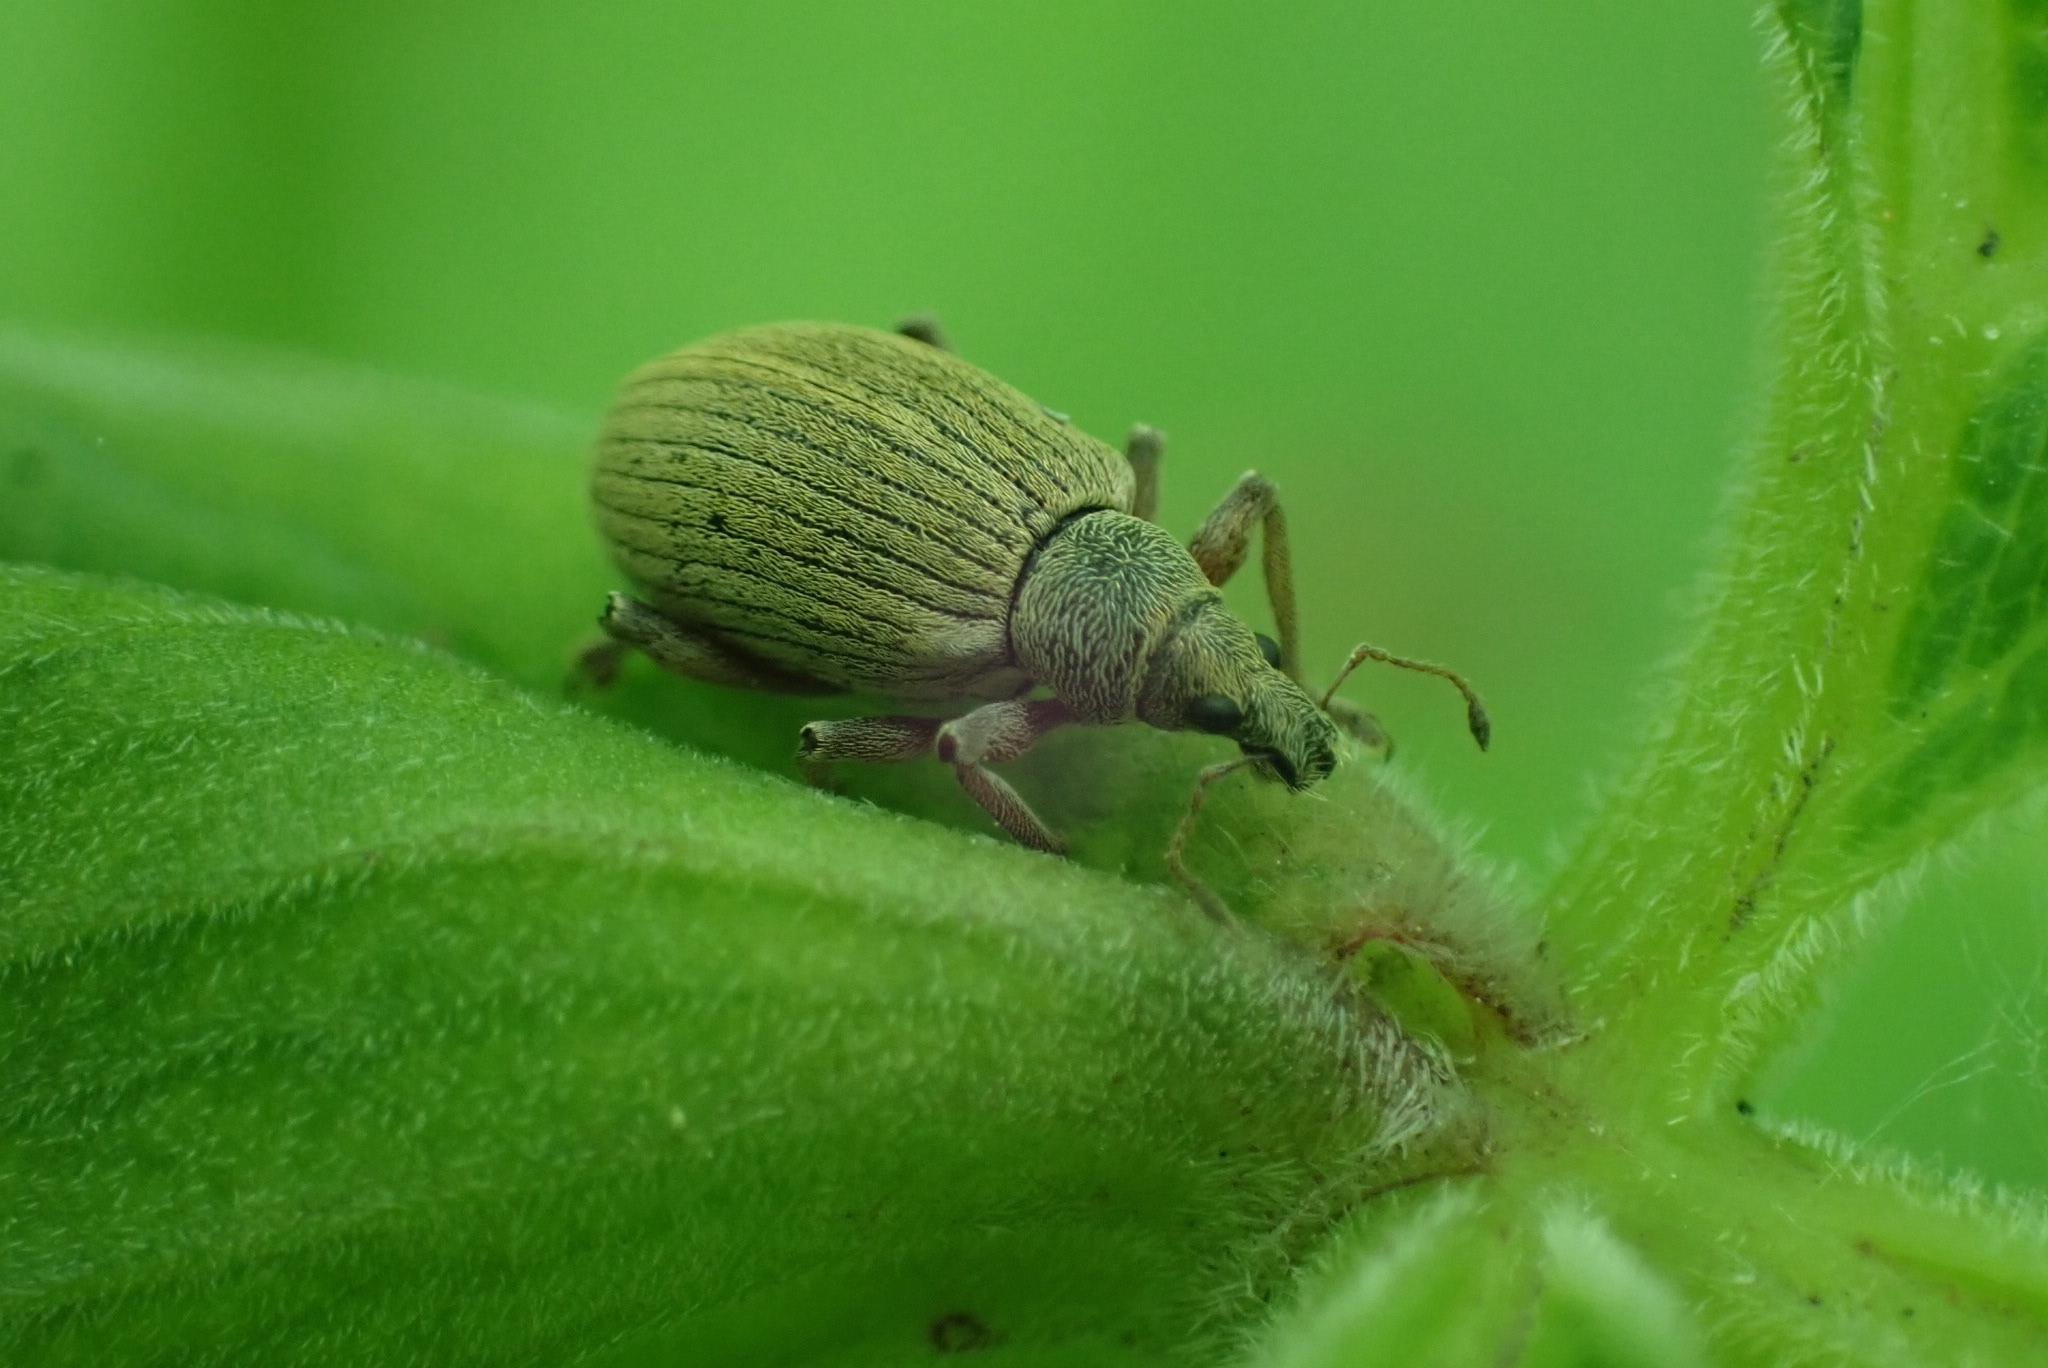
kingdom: Animalia
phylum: Arthropoda
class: Insecta
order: Coleoptera
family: Curculionidae
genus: Polydrusus
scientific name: Polydrusus mollis
